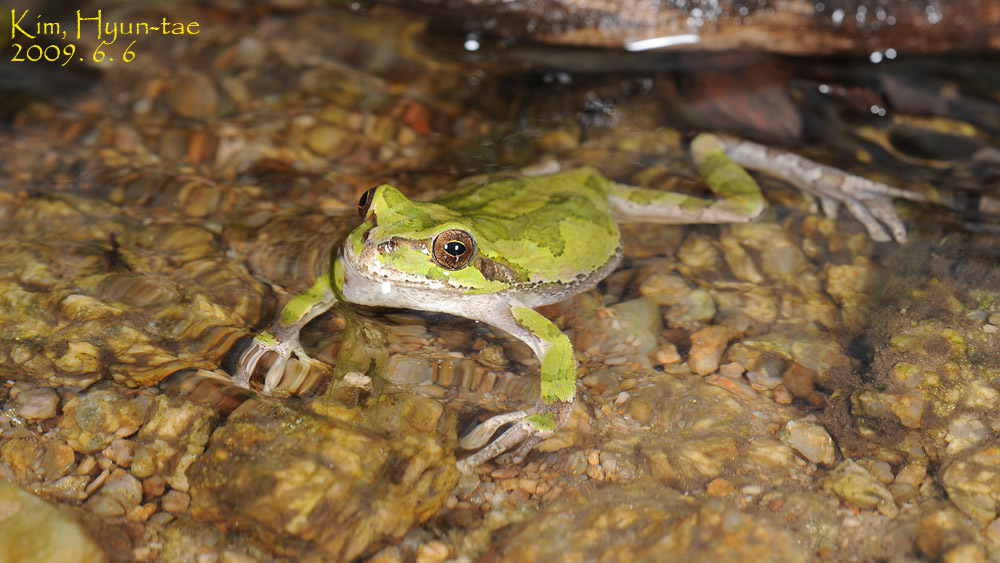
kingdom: Animalia
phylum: Chordata
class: Amphibia
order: Anura
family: Hylidae
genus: Dryophytes
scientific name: Dryophytes japonicus
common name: Japanese treefrog
